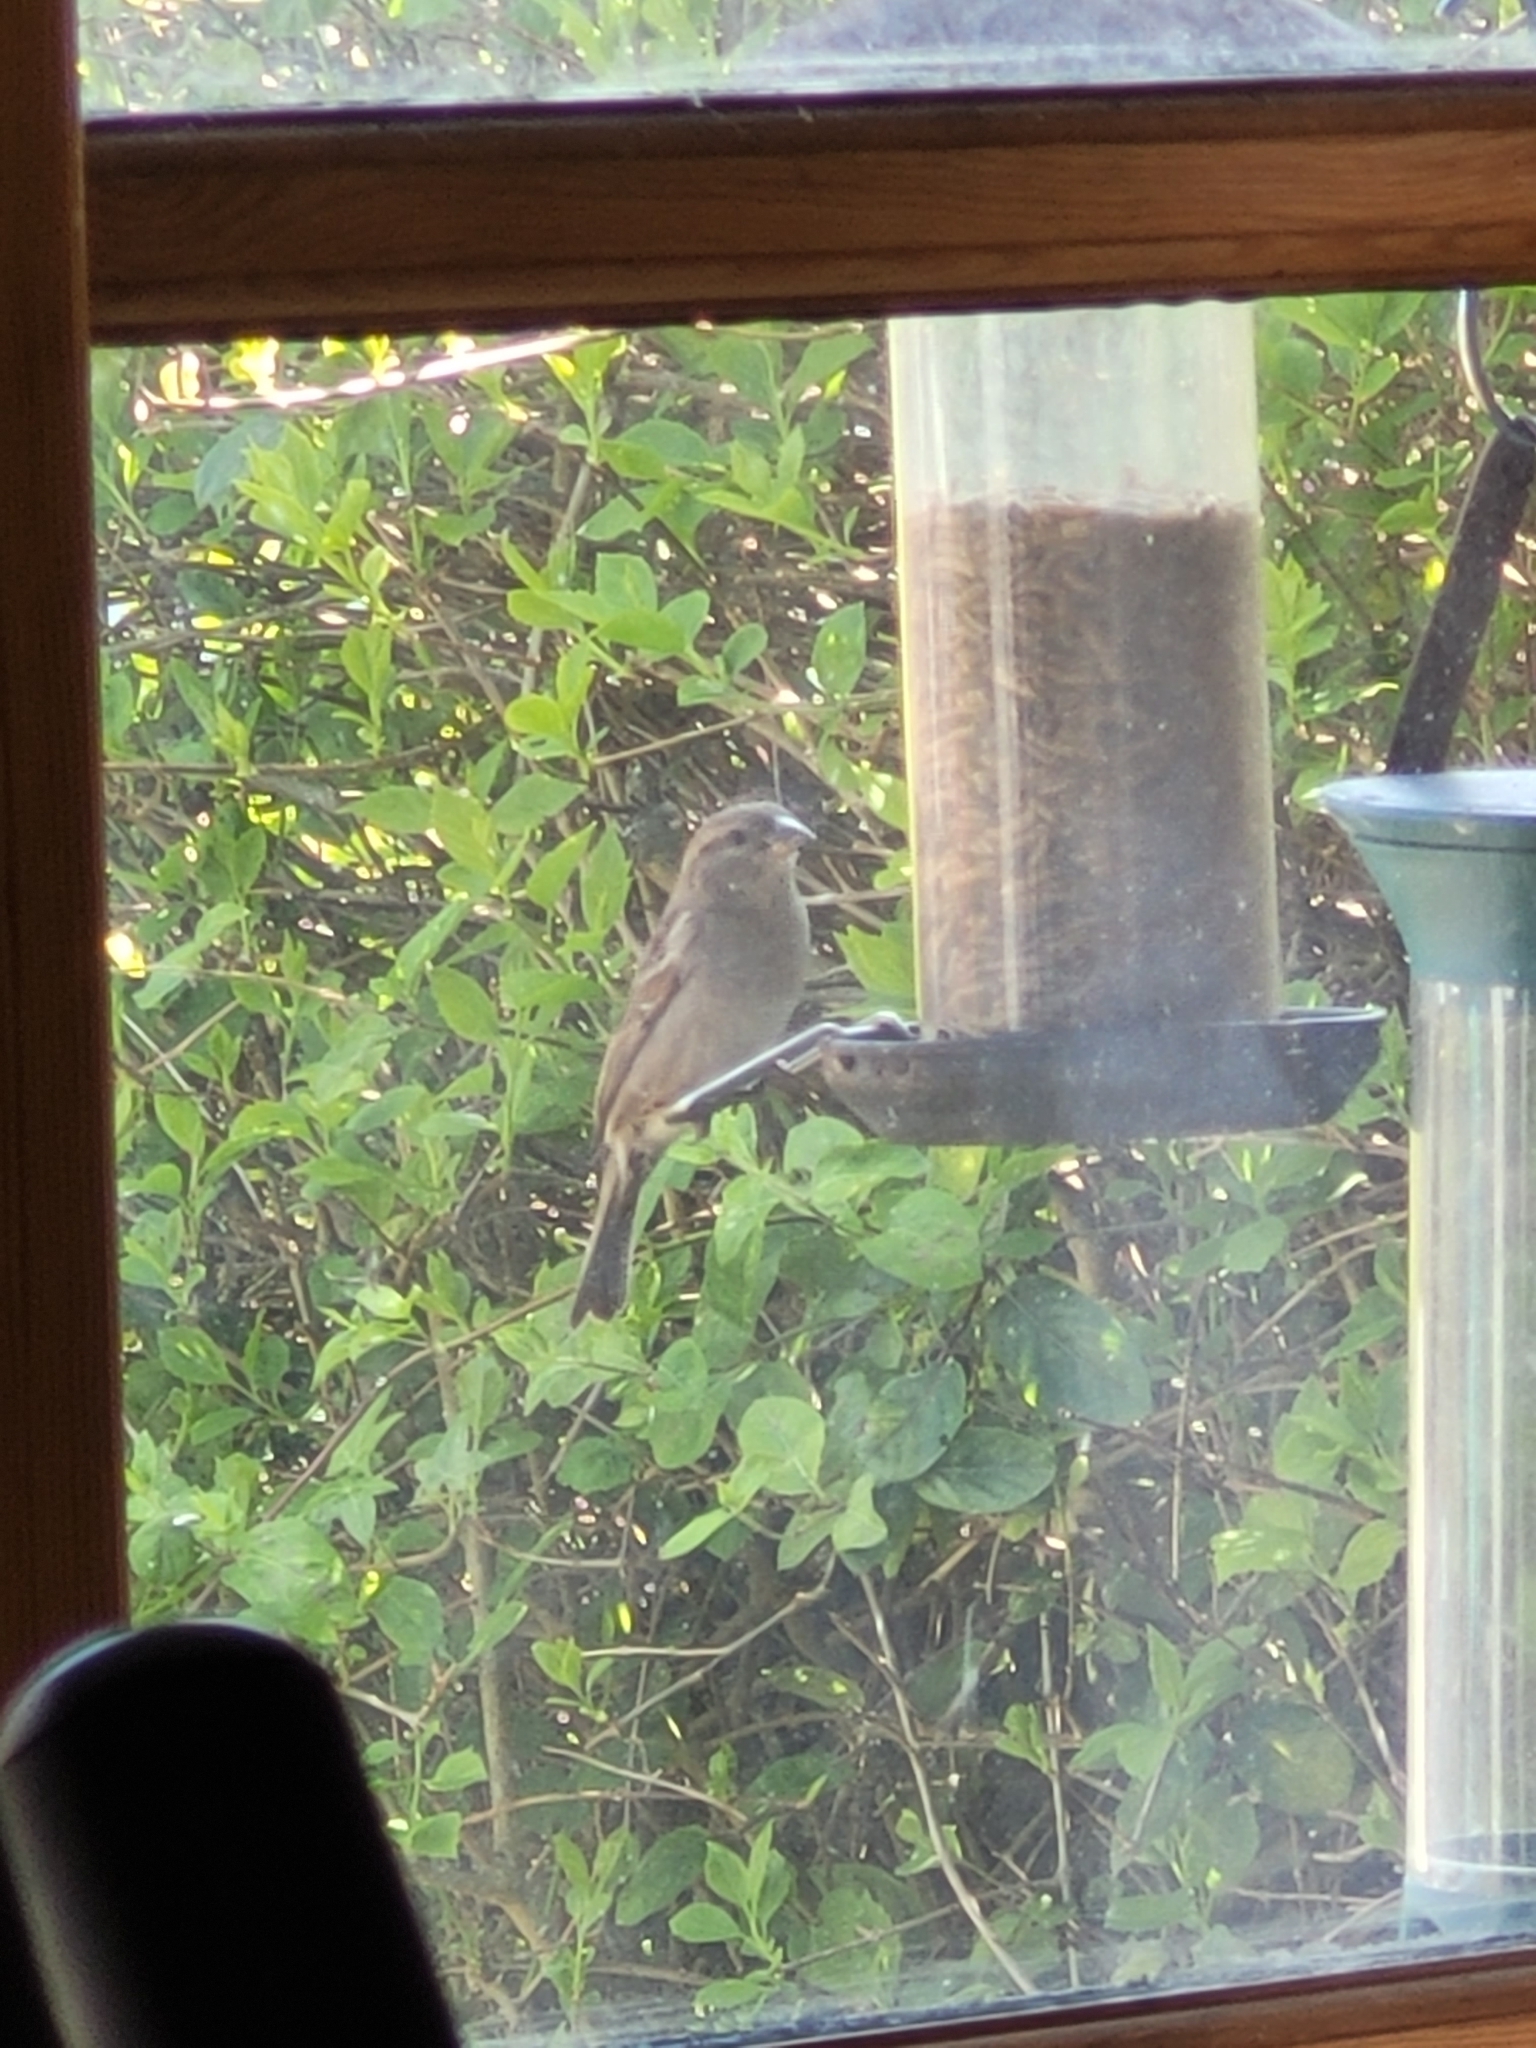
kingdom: Animalia
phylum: Chordata
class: Aves
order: Passeriformes
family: Passeridae
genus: Passer
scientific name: Passer domesticus
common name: House sparrow
